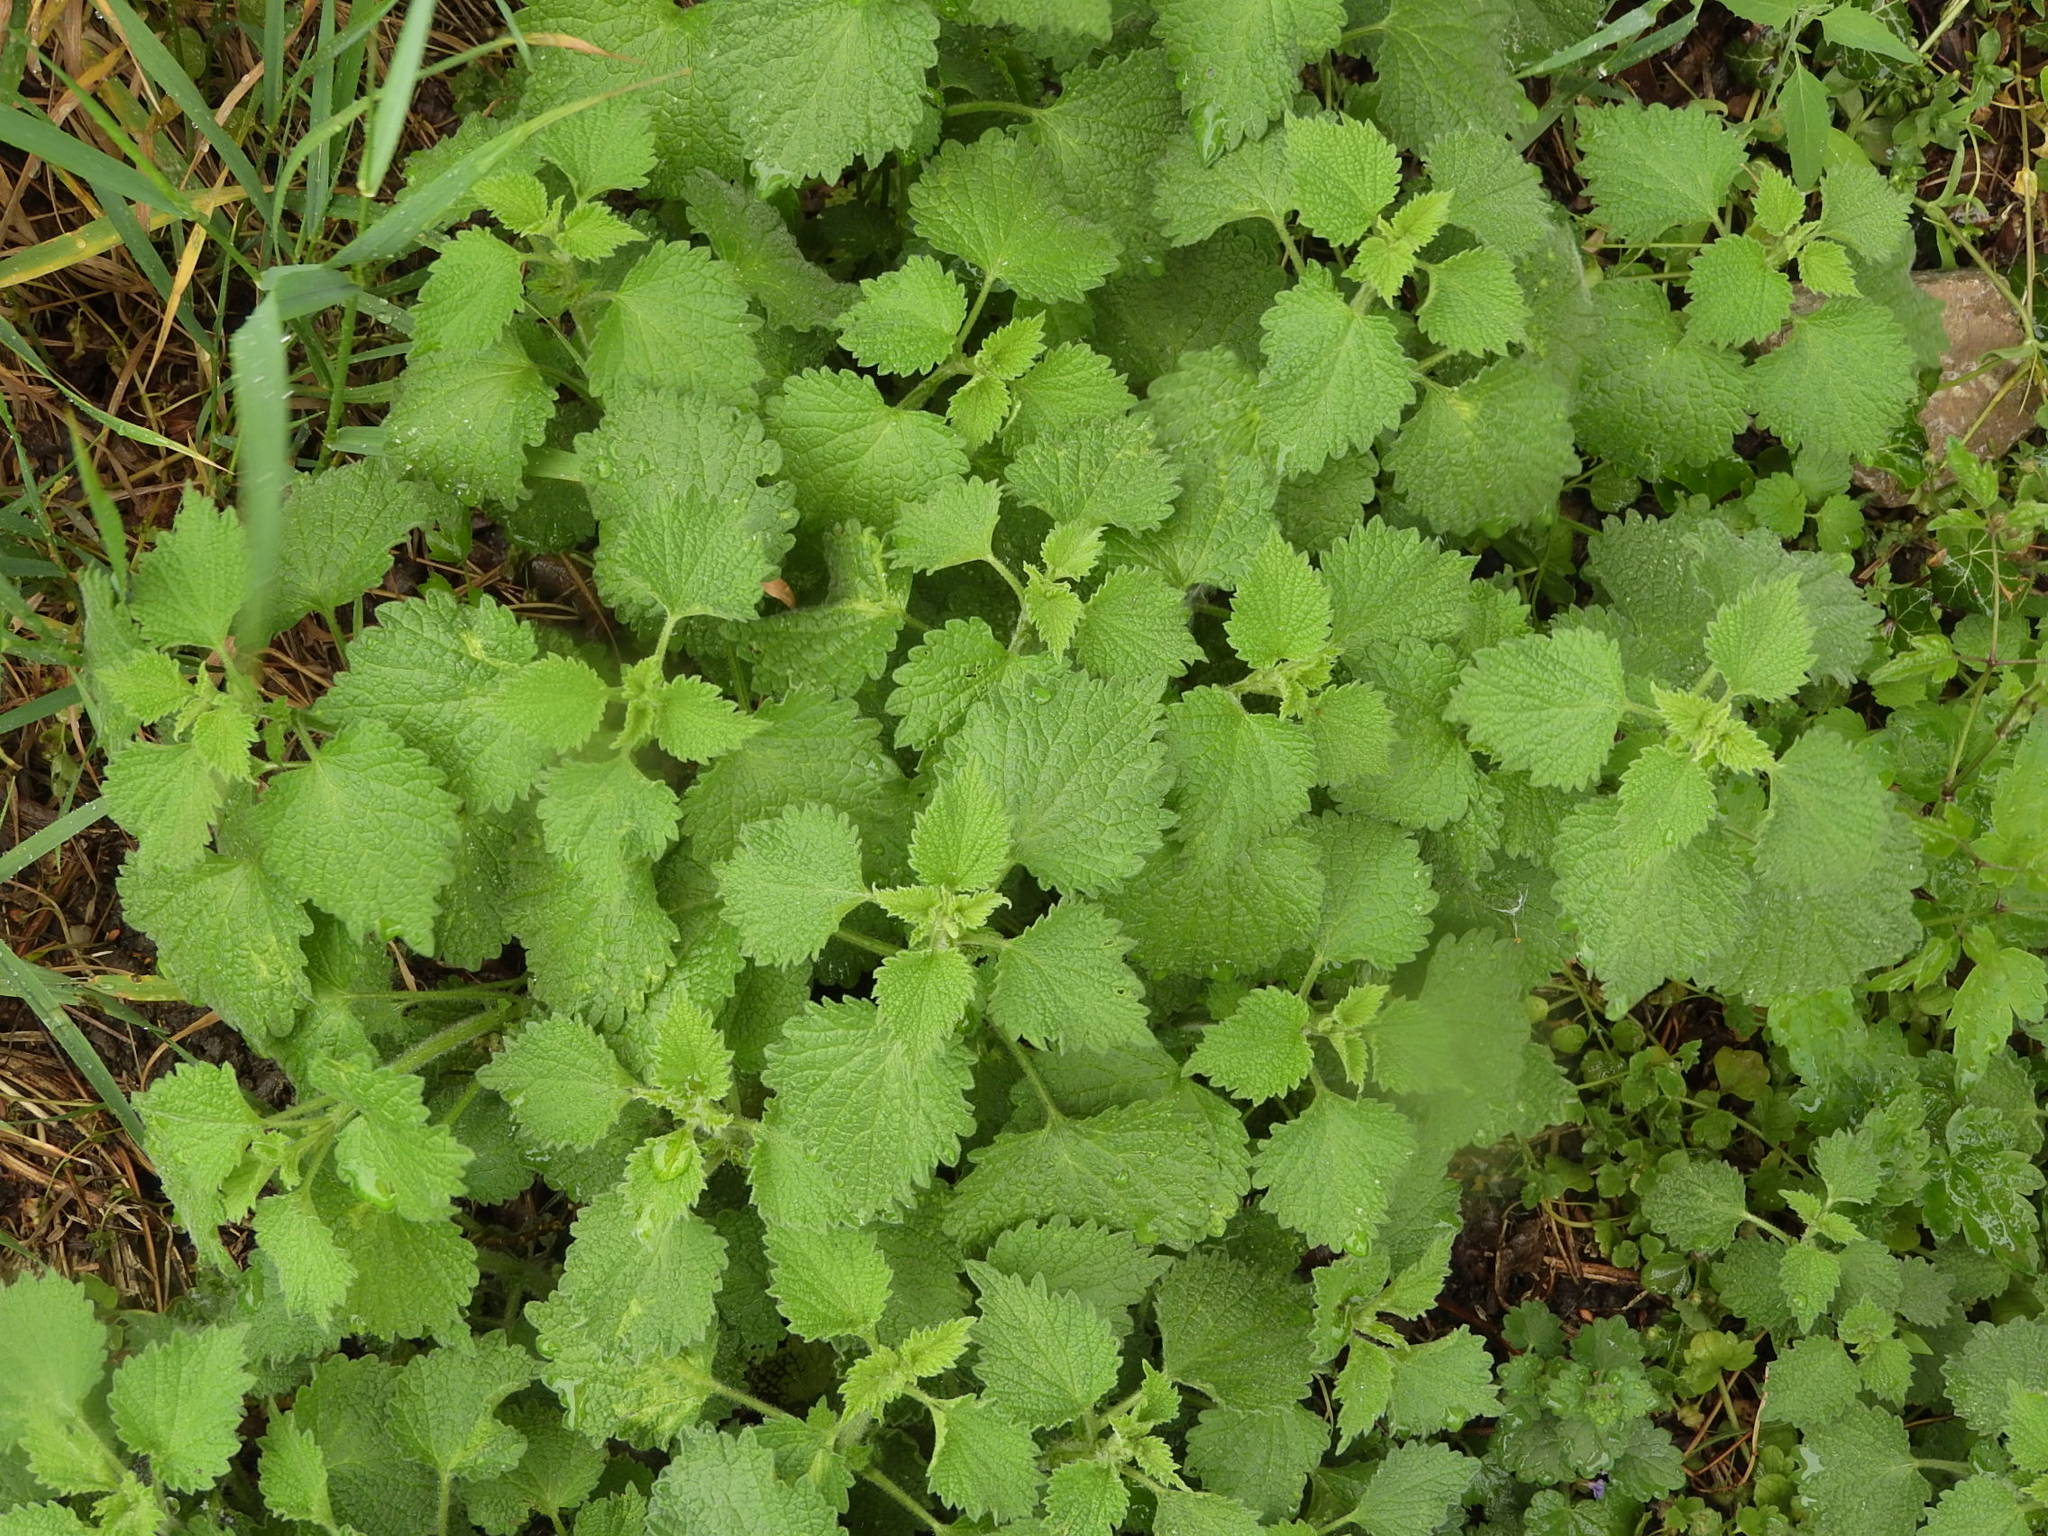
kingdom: Plantae
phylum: Tracheophyta
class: Magnoliopsida
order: Lamiales
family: Lamiaceae
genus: Ballota
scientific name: Ballota nigra
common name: Black horehound
